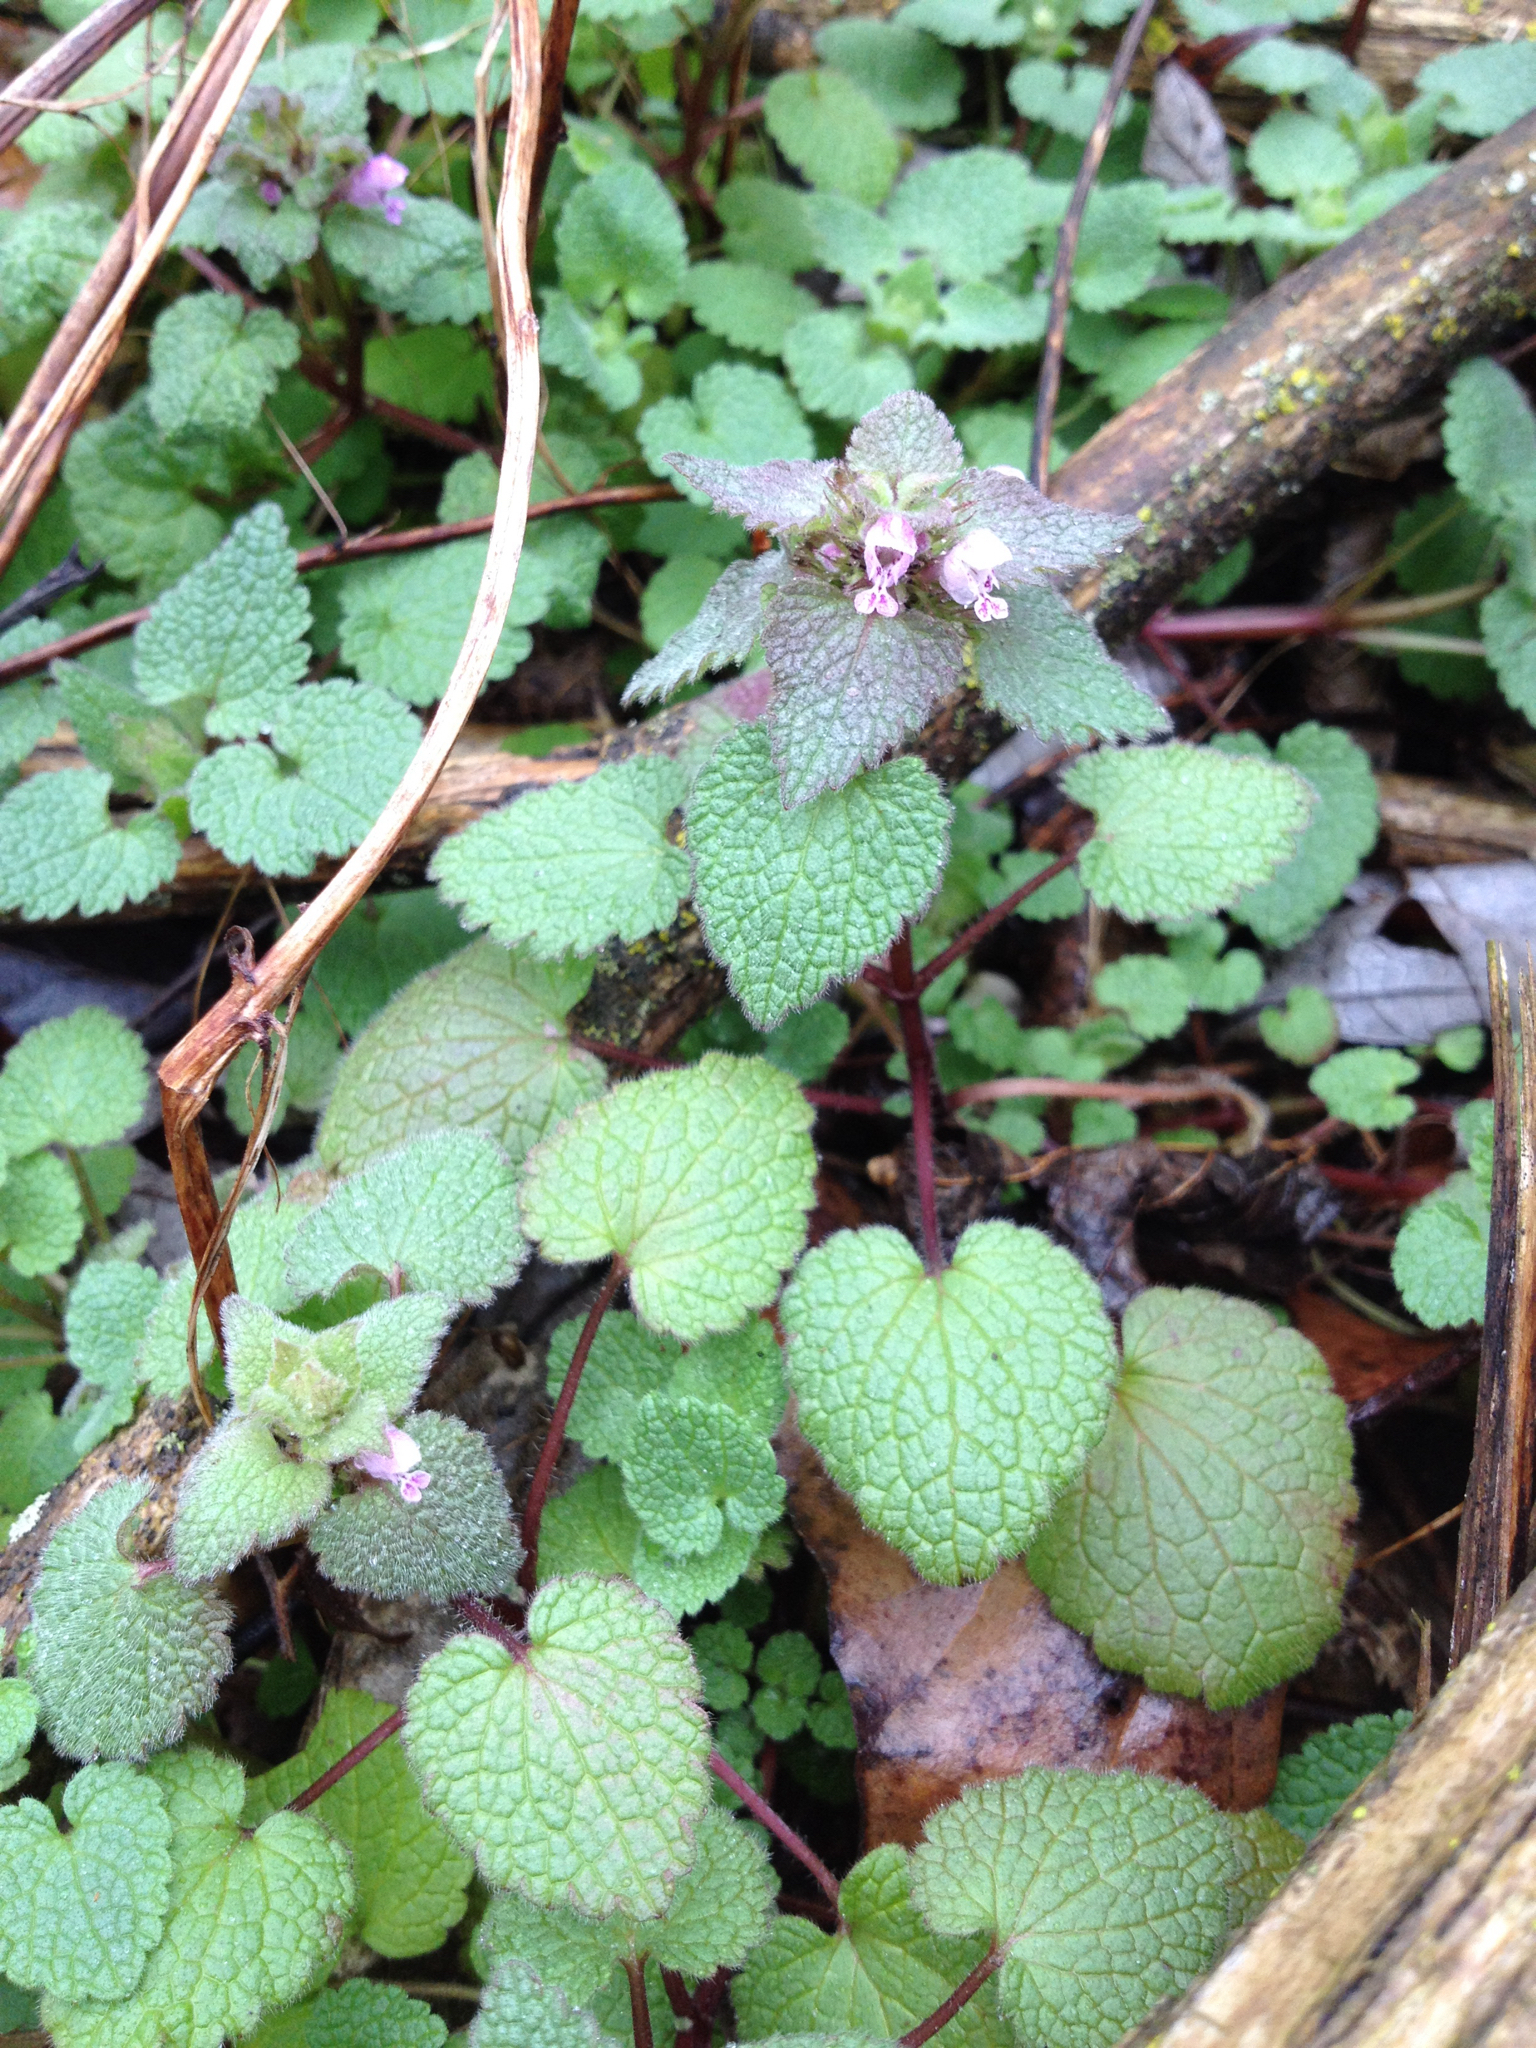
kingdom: Plantae
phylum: Tracheophyta
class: Magnoliopsida
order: Lamiales
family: Lamiaceae
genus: Lamium
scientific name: Lamium purpureum
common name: Red dead-nettle
